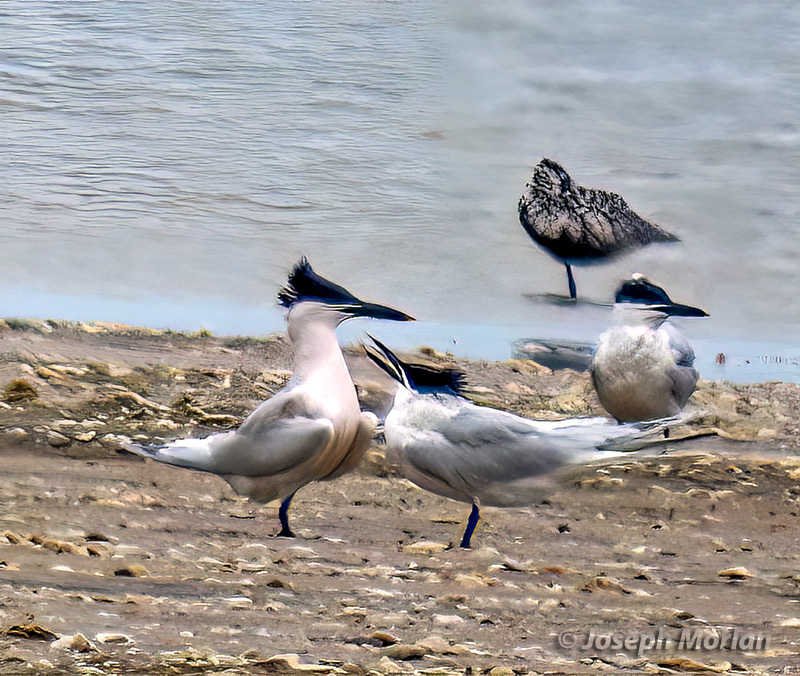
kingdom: Animalia
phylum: Chordata
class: Aves
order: Charadriiformes
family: Laridae
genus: Thalasseus
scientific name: Thalasseus sandvicensis
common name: Sandwich tern
